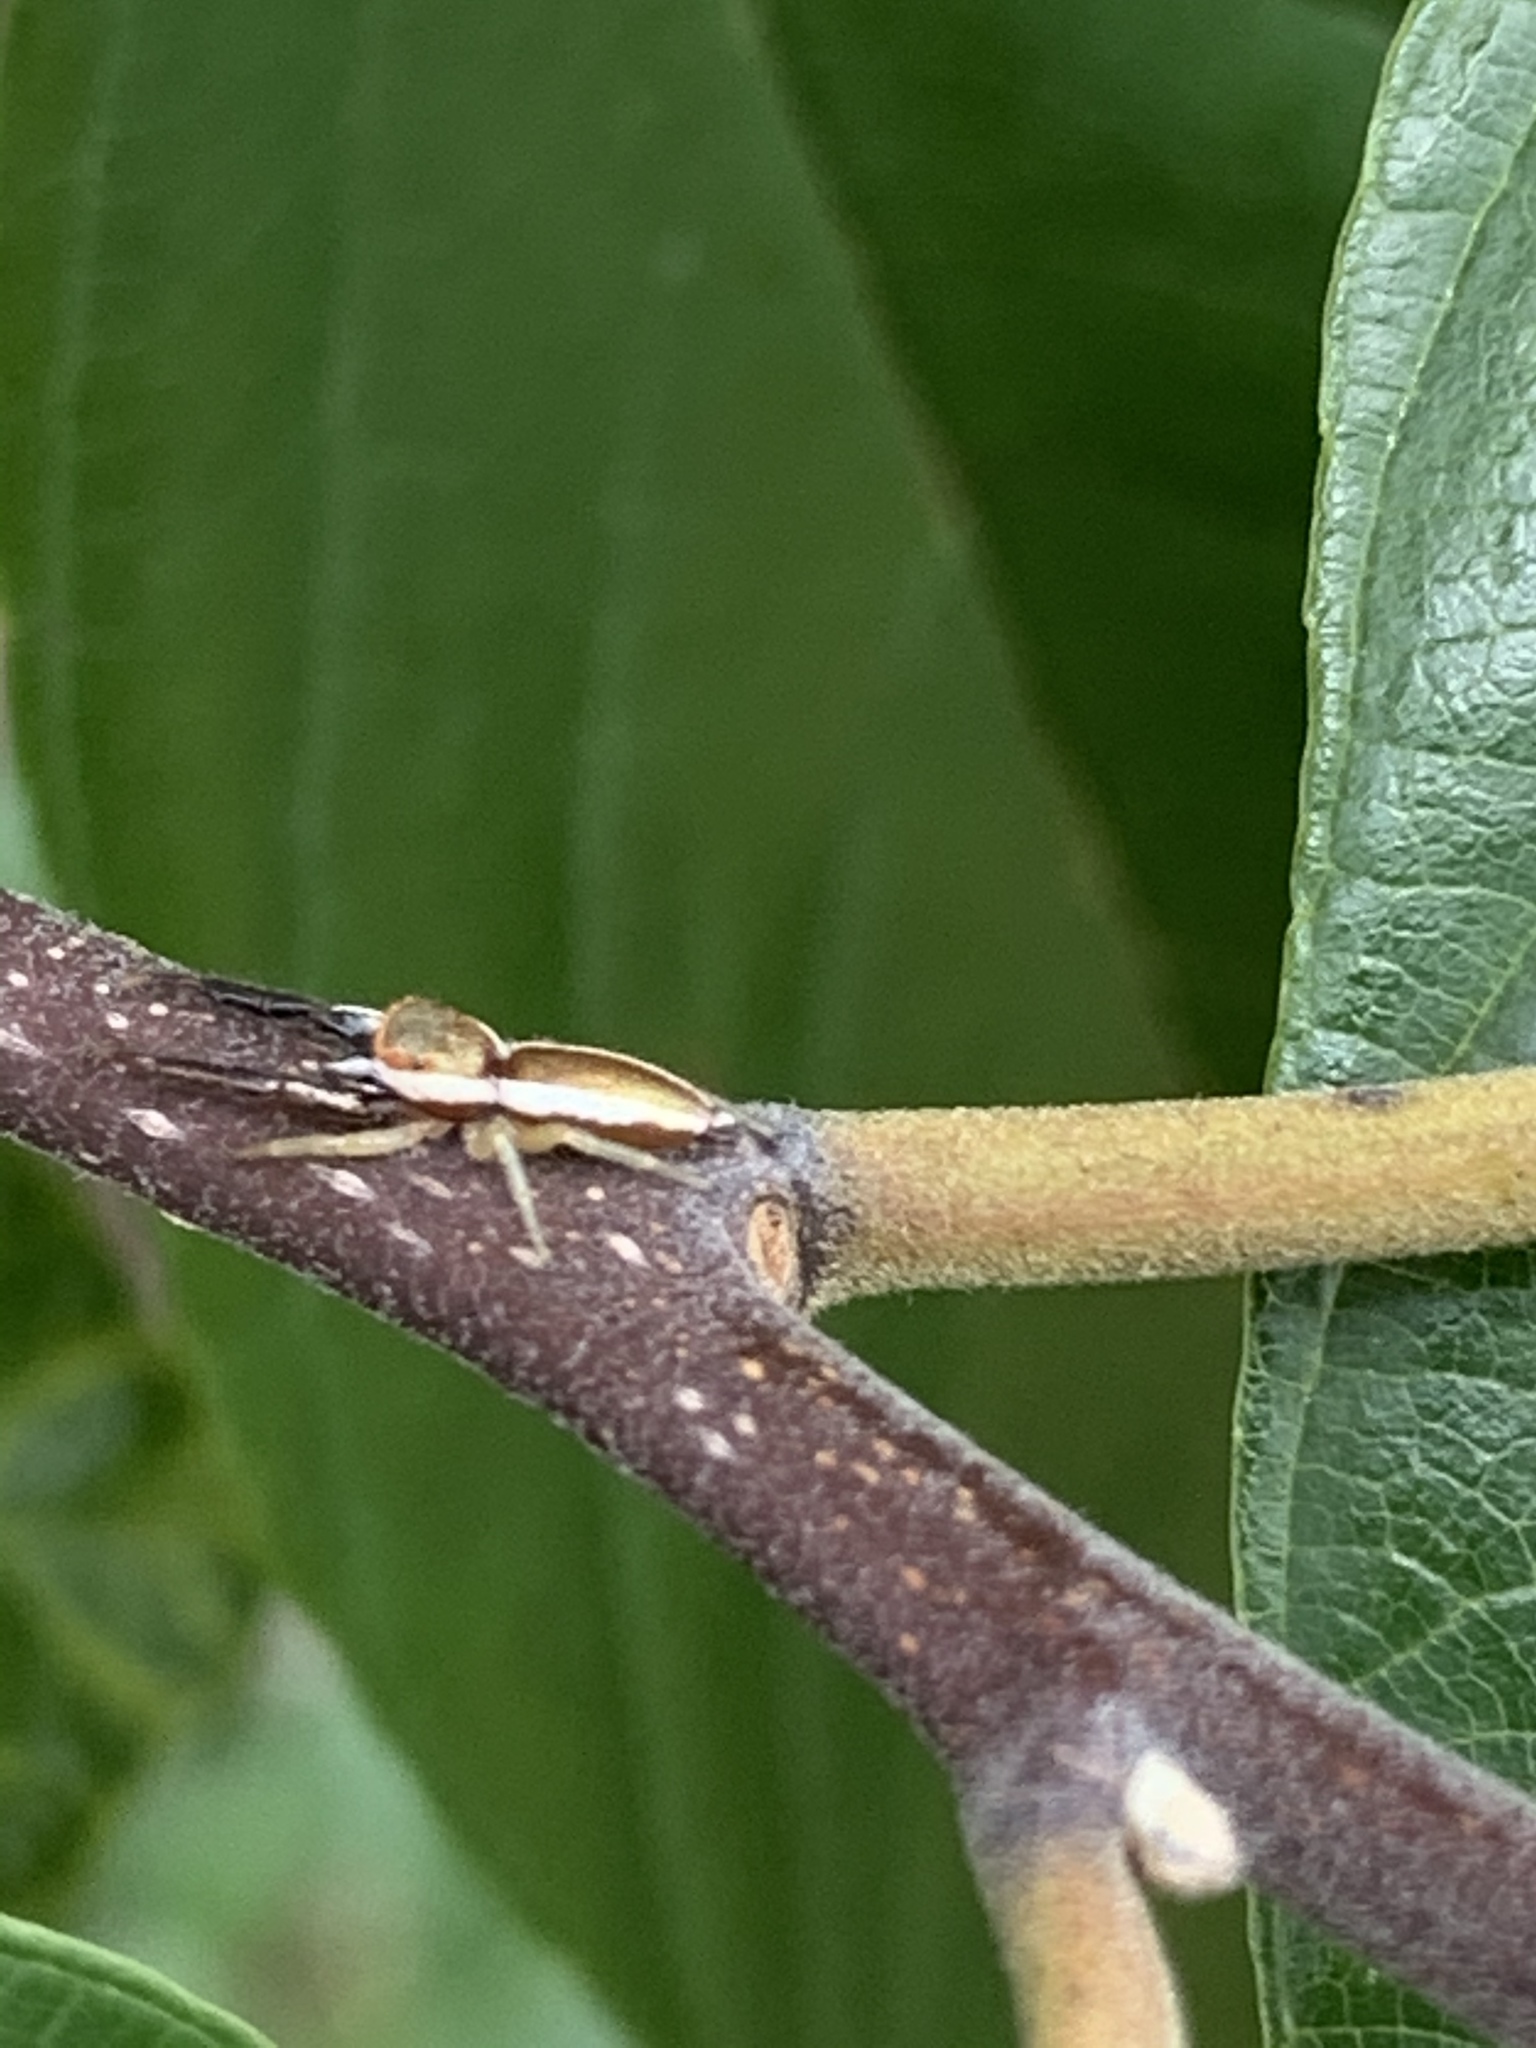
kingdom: Animalia
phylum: Arthropoda
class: Arachnida
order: Araneae
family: Salticidae
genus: Hentzia
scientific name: Hentzia palmarum
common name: Common hentz jumping spider
